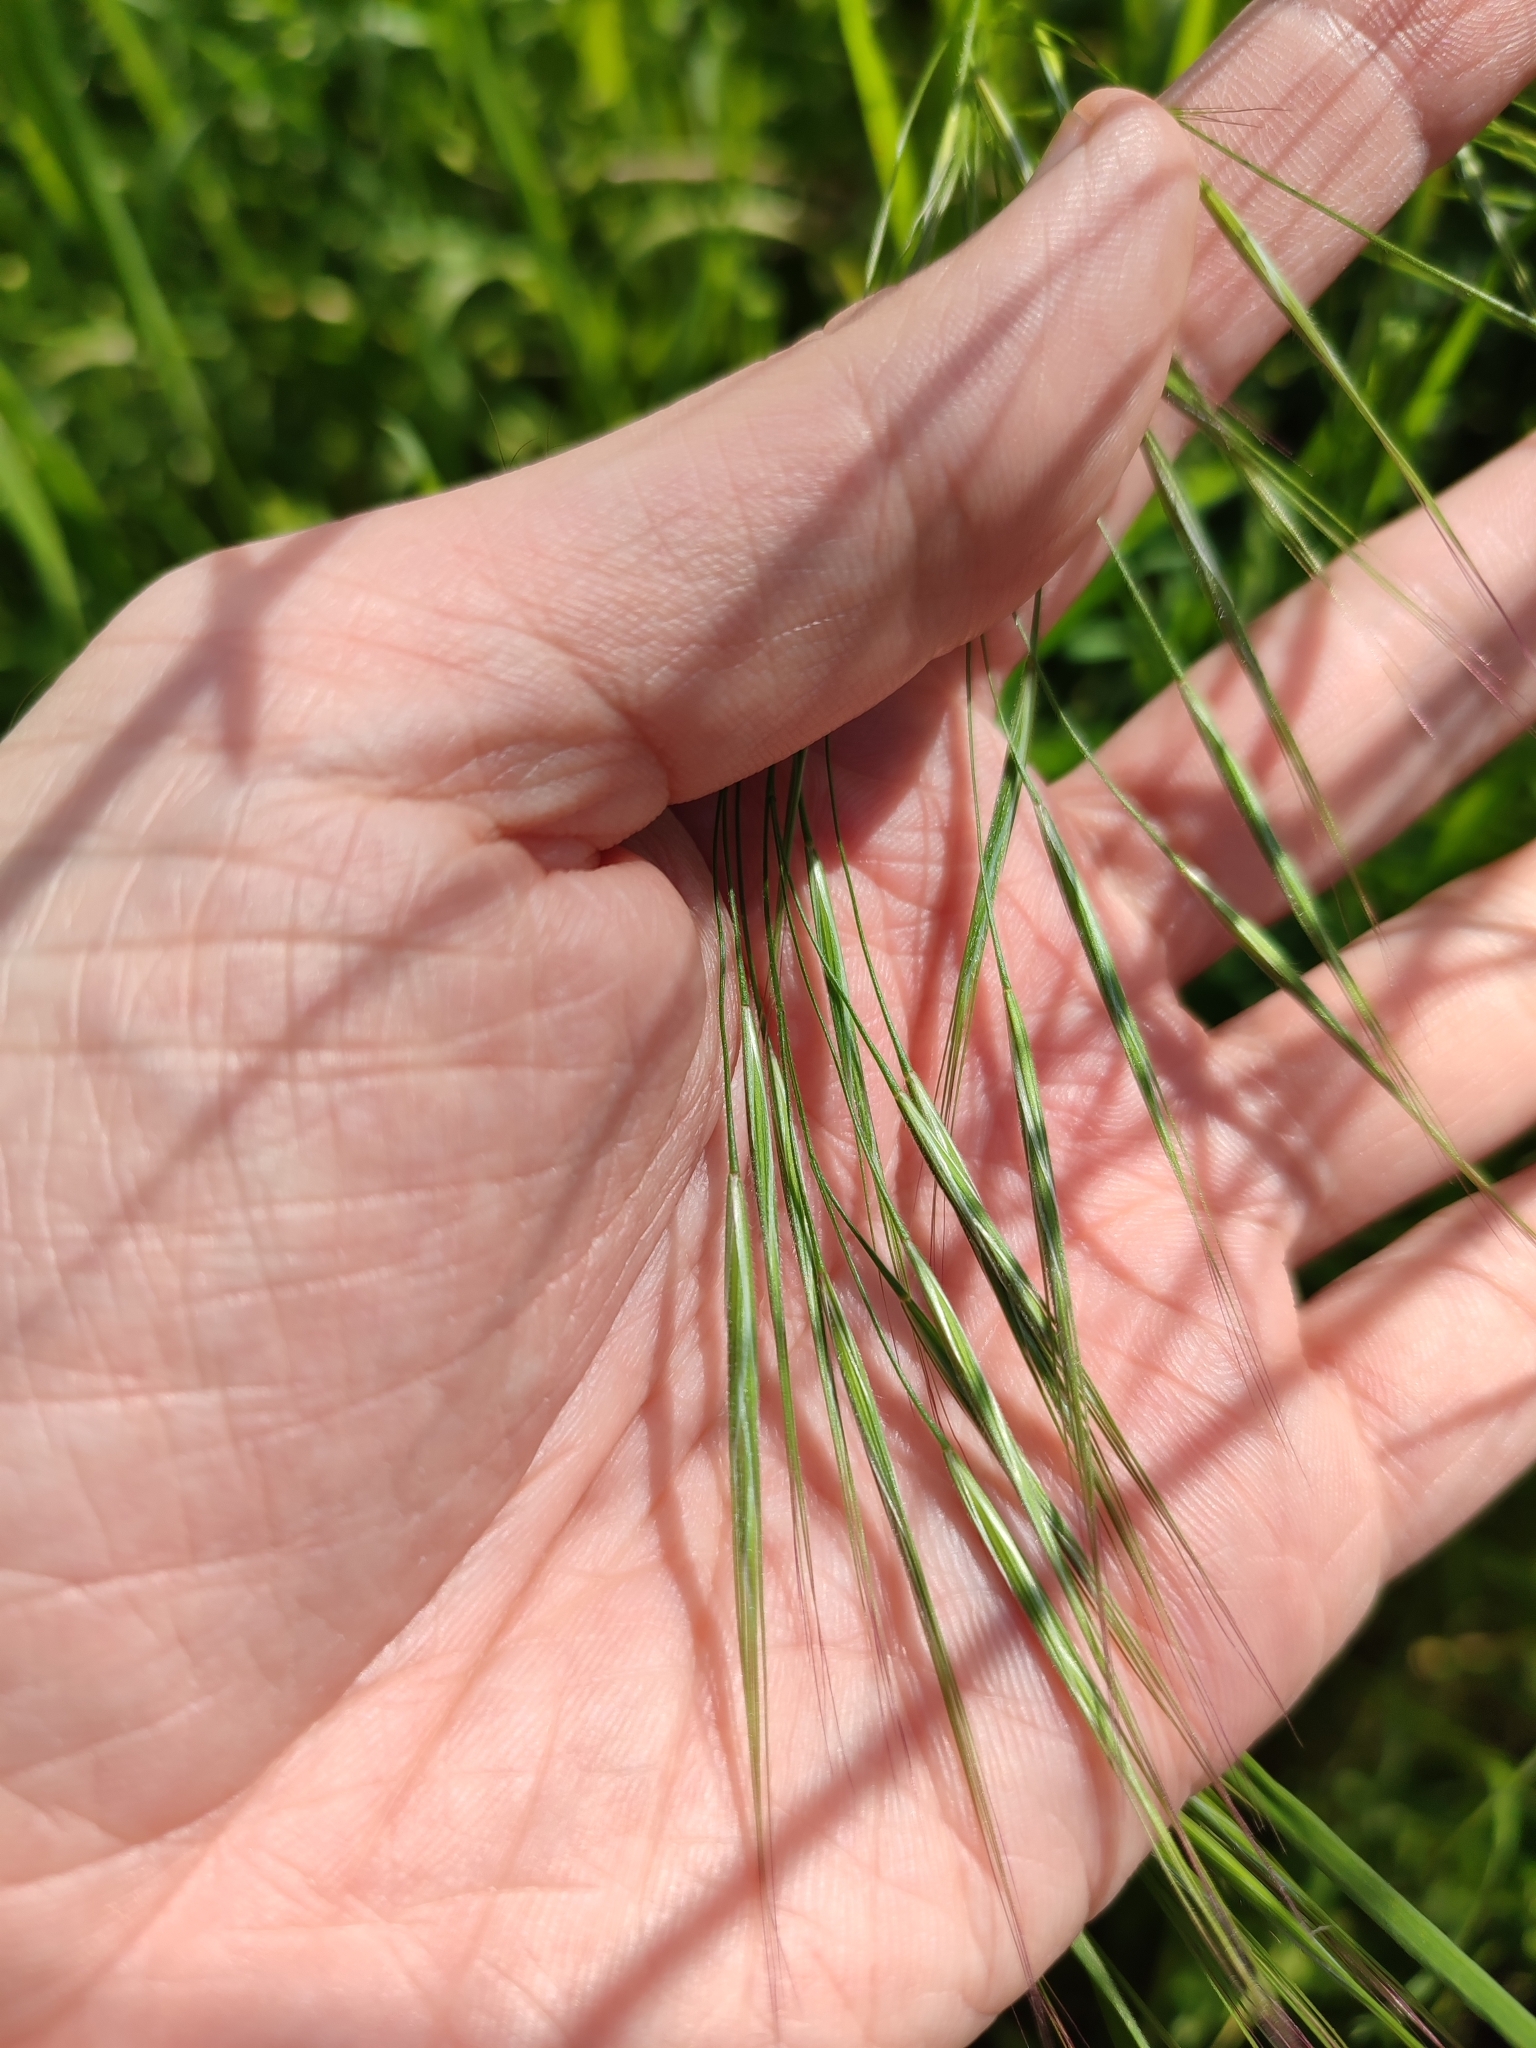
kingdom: Plantae
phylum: Tracheophyta
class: Liliopsida
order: Poales
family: Poaceae
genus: Bromus
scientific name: Bromus tectorum
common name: Cheatgrass
